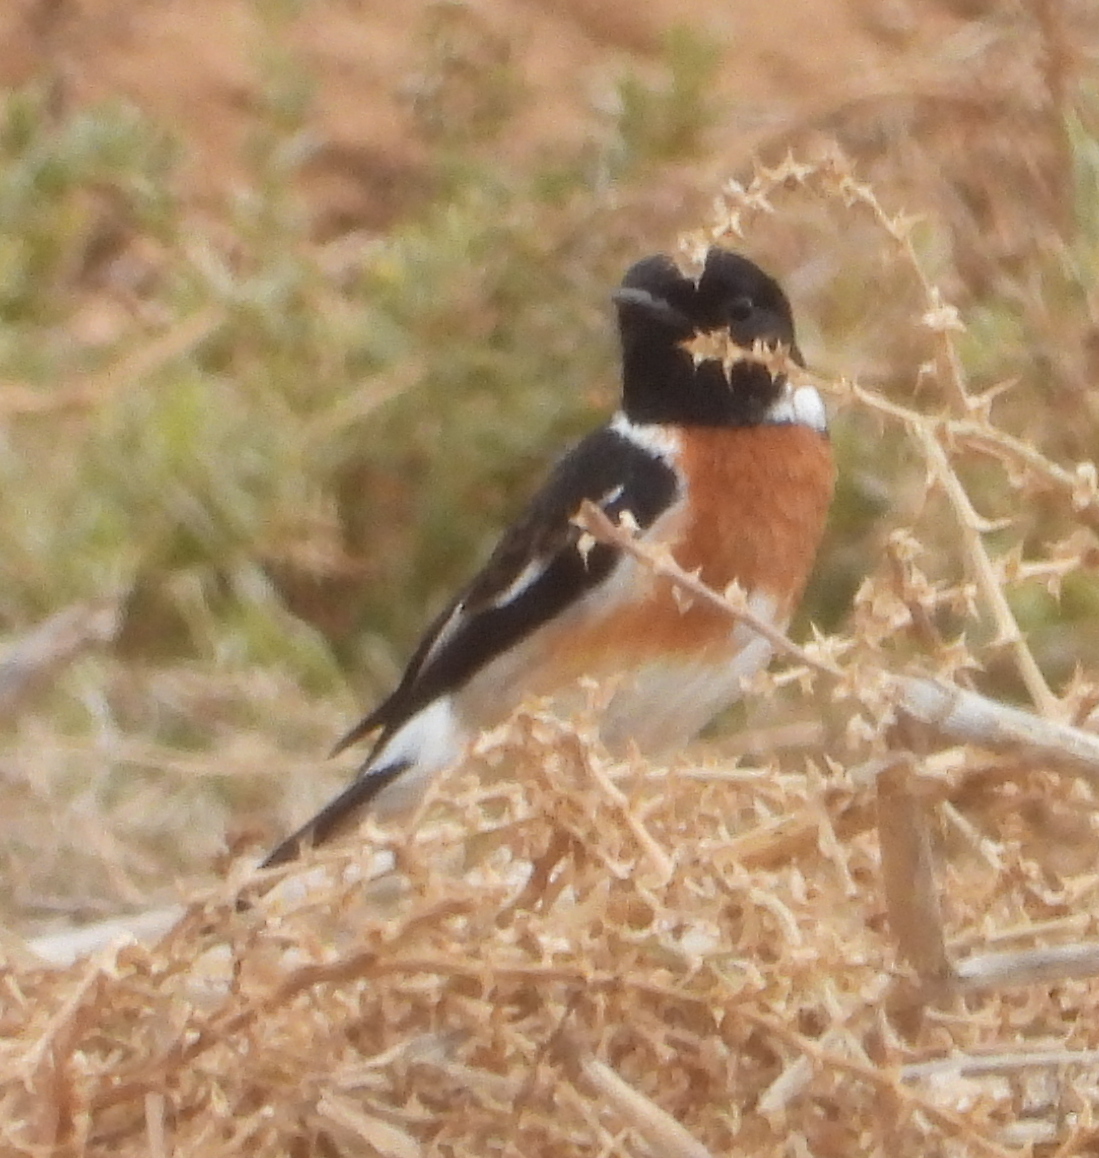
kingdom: Animalia
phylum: Chordata
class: Aves
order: Passeriformes
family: Muscicapidae
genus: Saxicola
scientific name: Saxicola torquatus
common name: African stonechat
